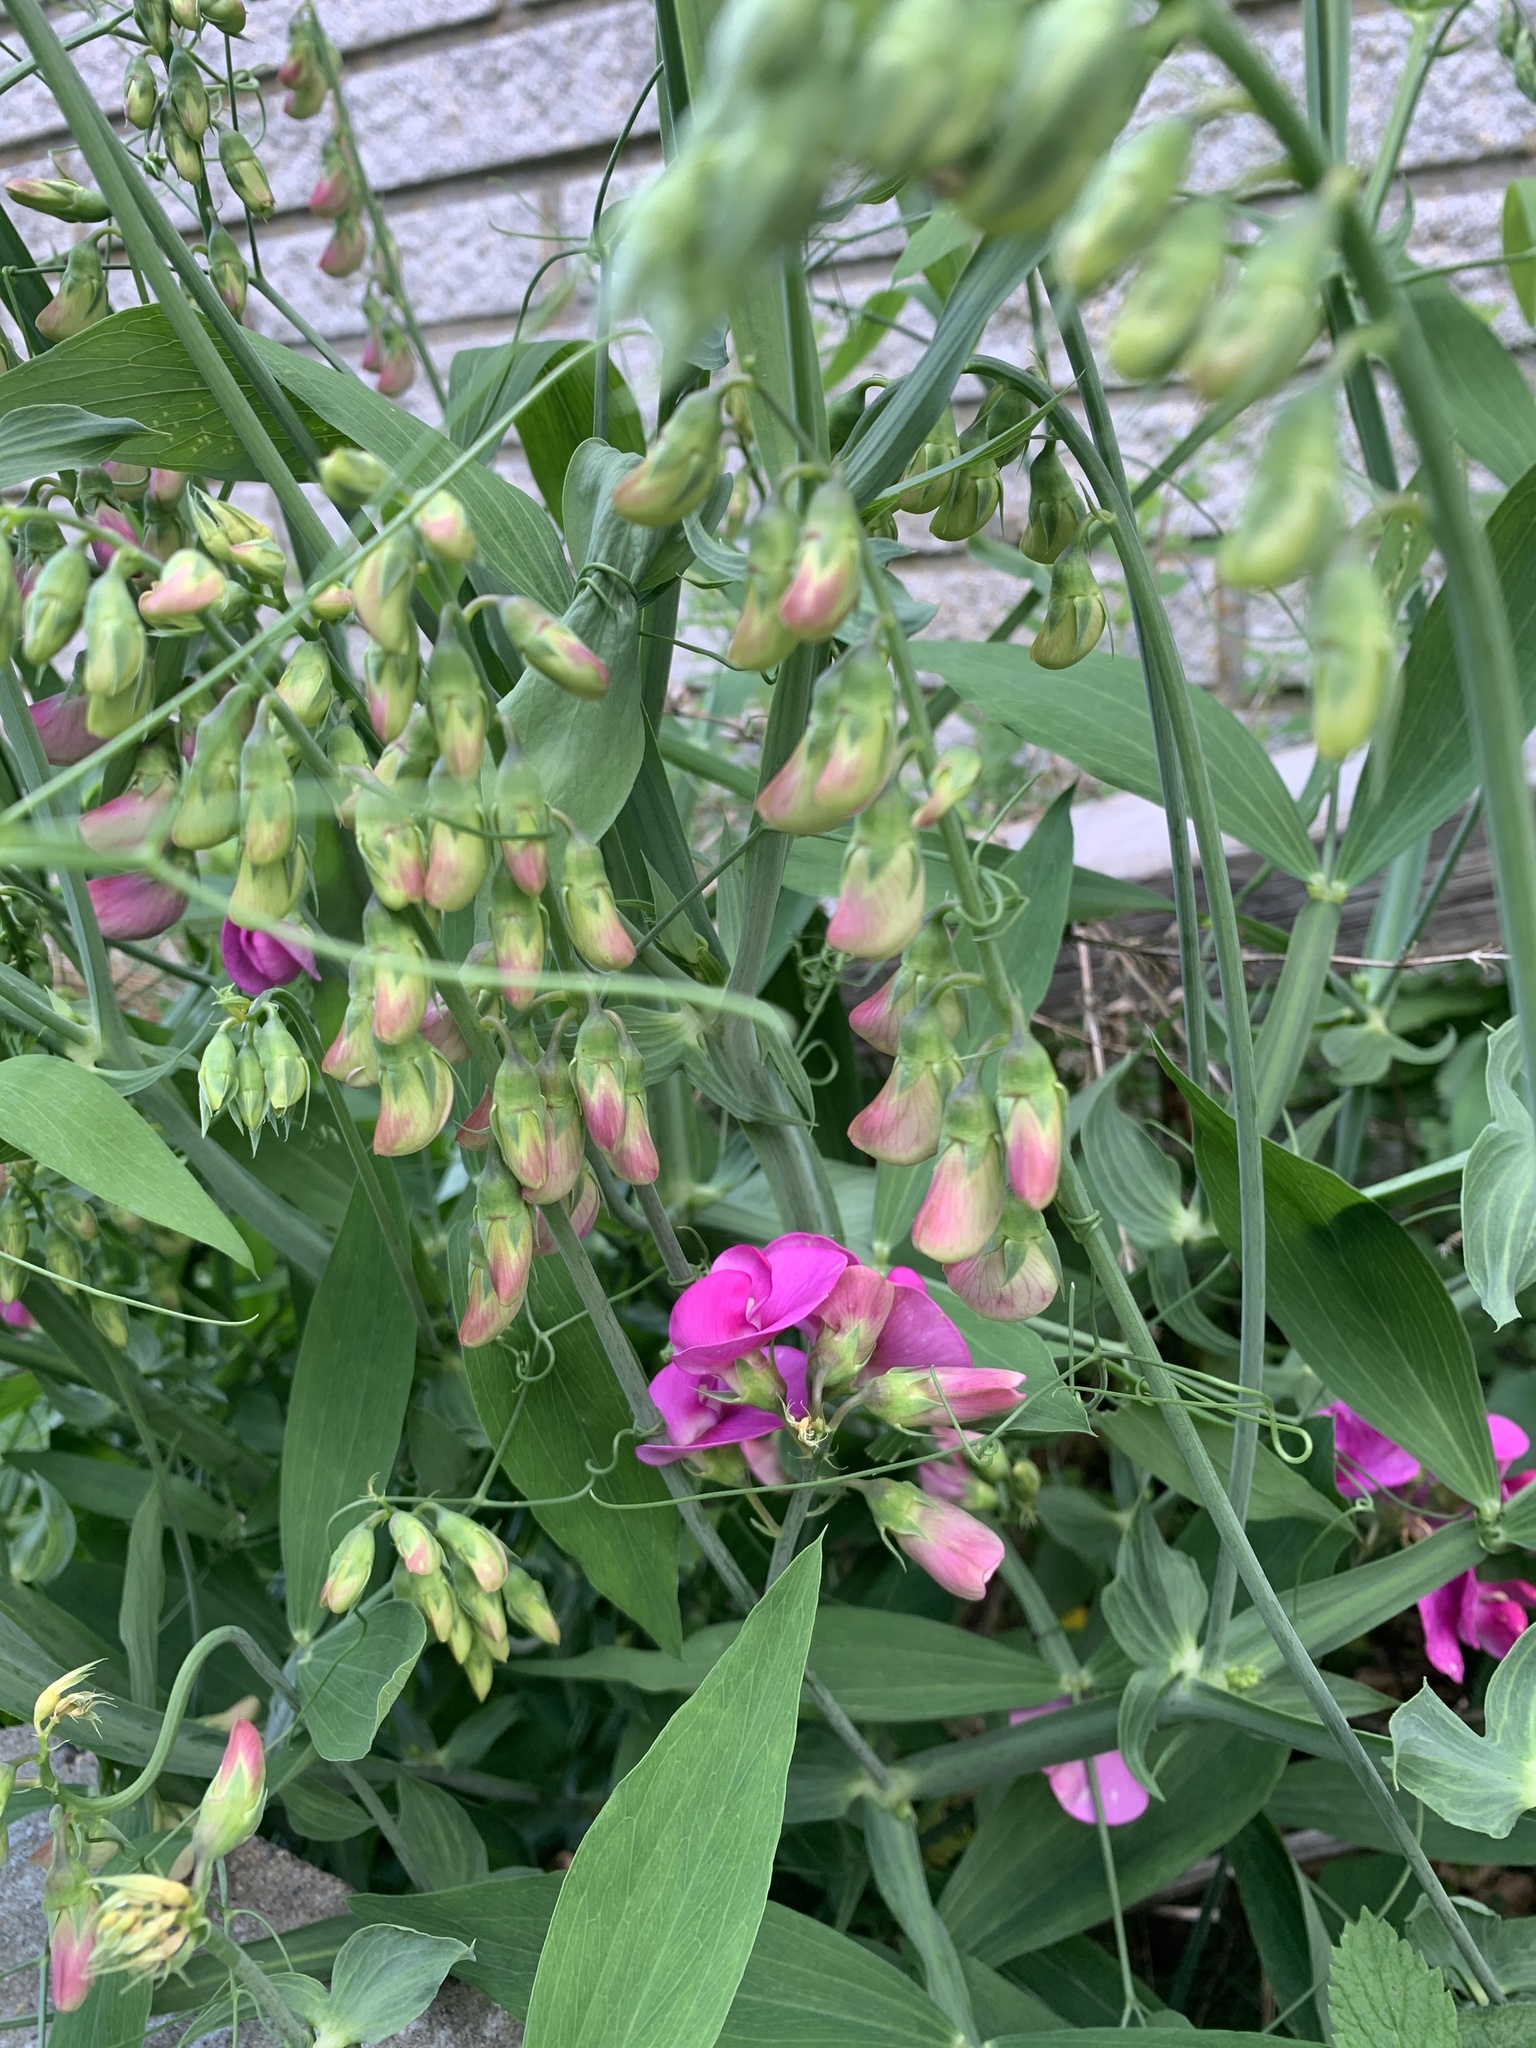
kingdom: Plantae
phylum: Tracheophyta
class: Magnoliopsida
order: Fabales
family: Fabaceae
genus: Lathyrus
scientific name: Lathyrus latifolius
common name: Perennial pea
